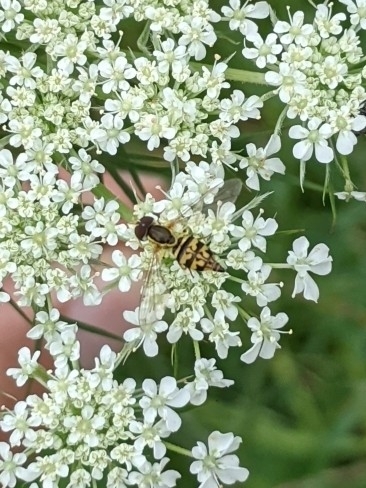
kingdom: Animalia
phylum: Arthropoda
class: Insecta
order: Diptera
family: Syrphidae
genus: Toxomerus
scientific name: Toxomerus geminatus
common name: Eastern calligrapher
